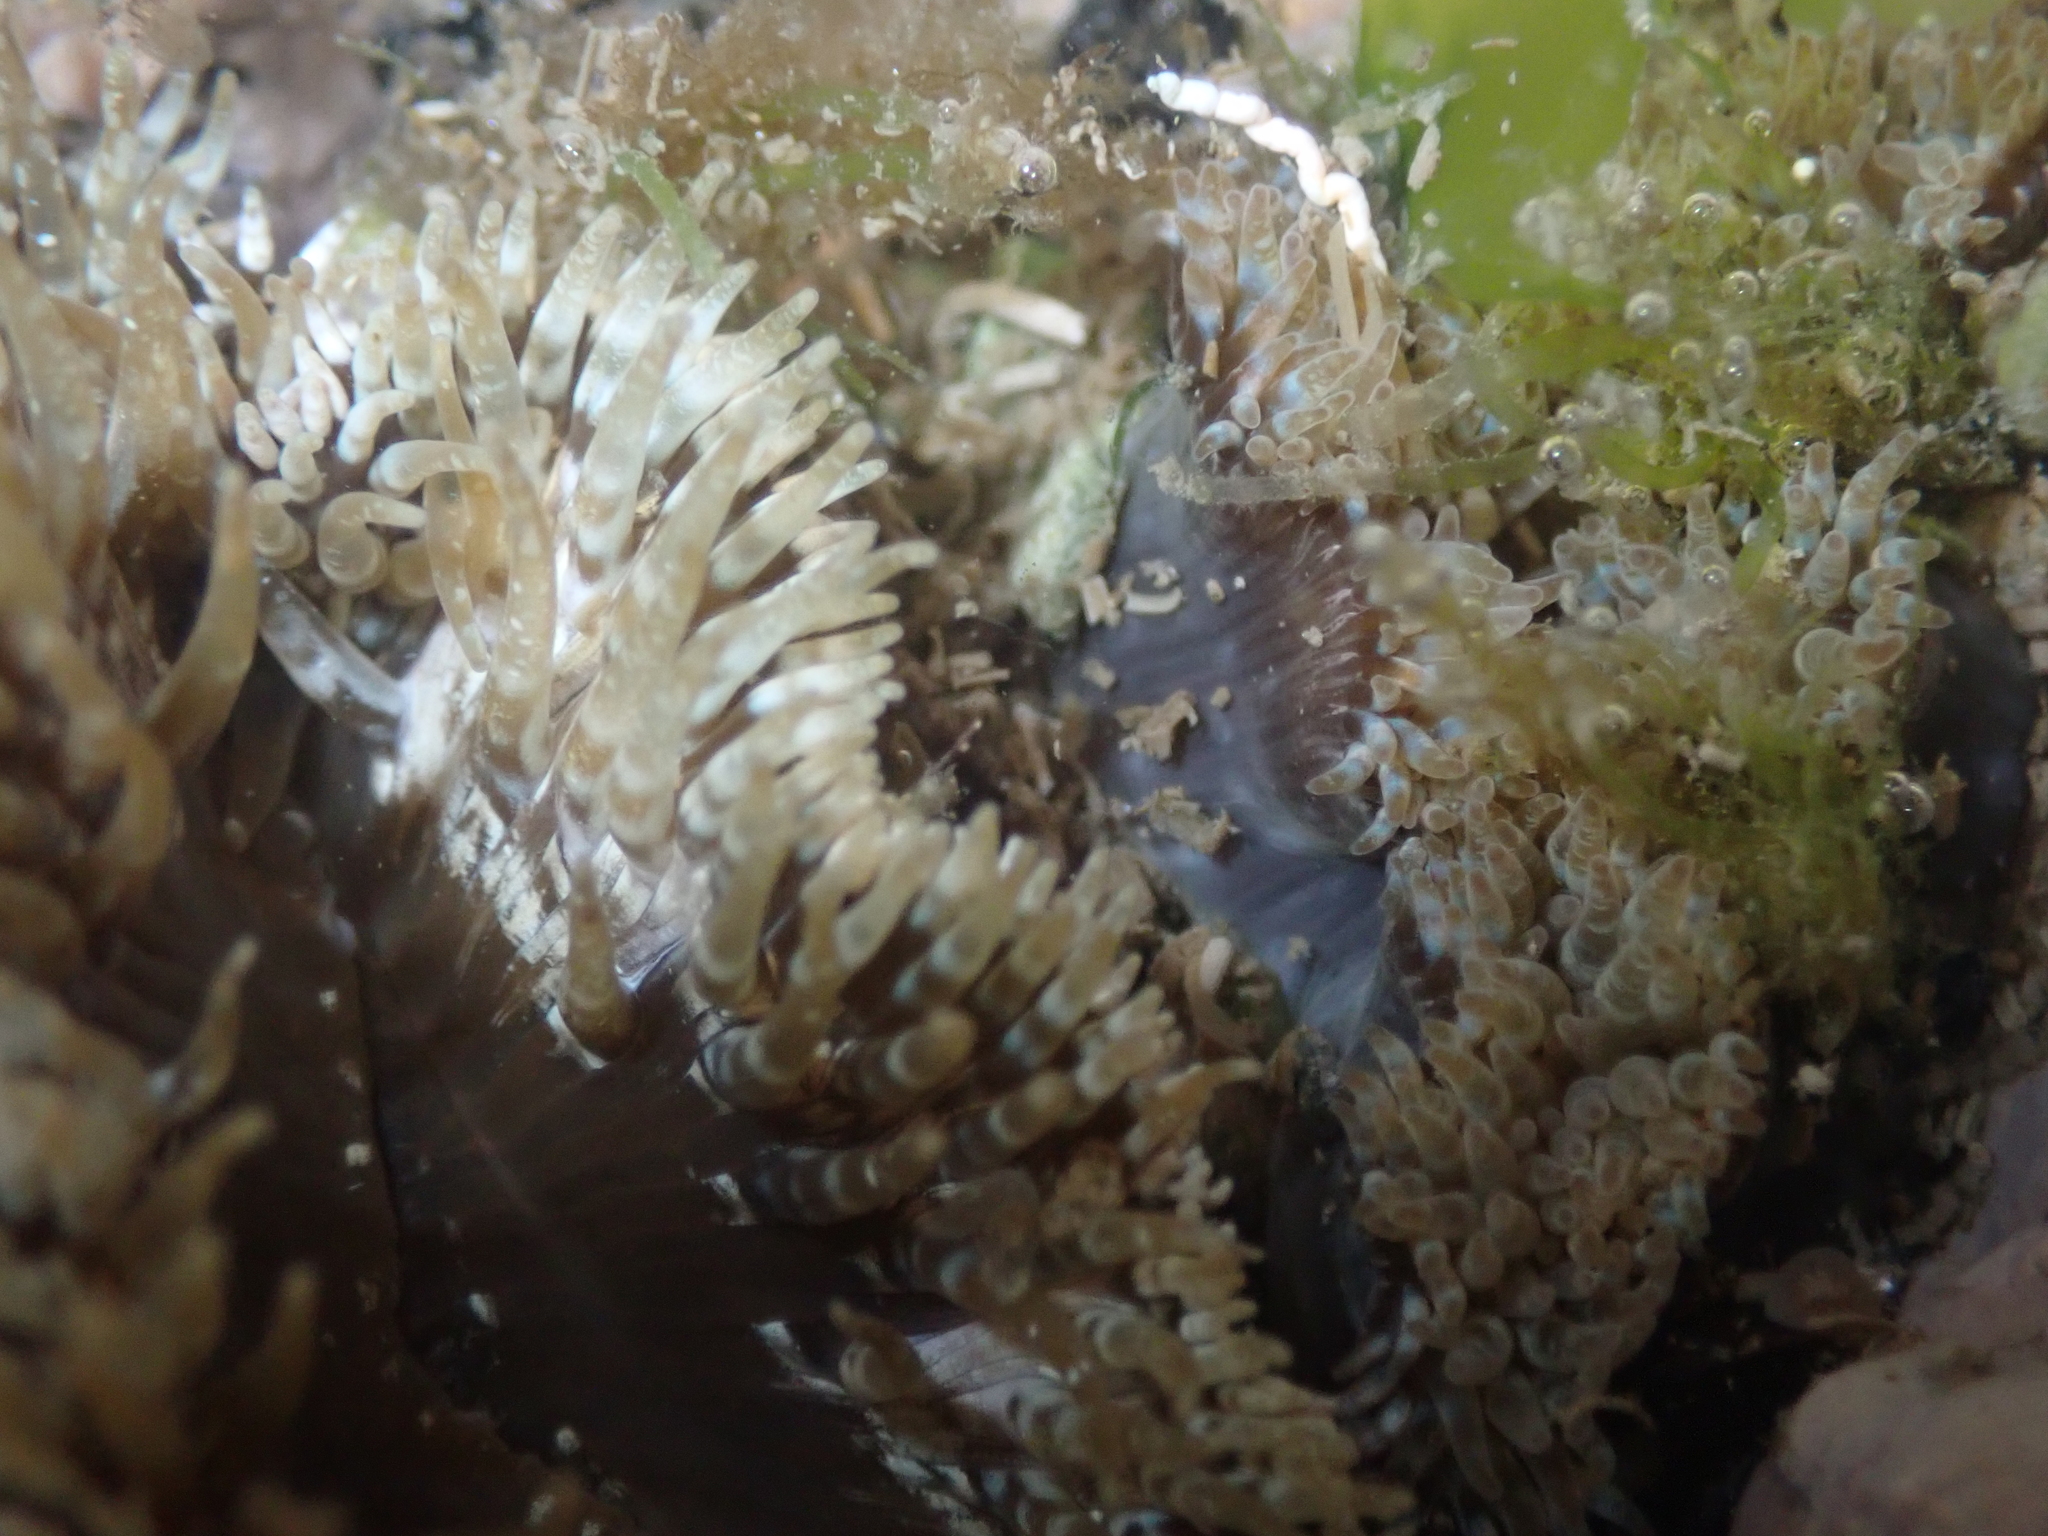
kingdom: Animalia
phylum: Cnidaria
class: Anthozoa
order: Actiniaria
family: Sagartiidae
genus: Cereus
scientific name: Cereus pedunculatus
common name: Daisy anemone
